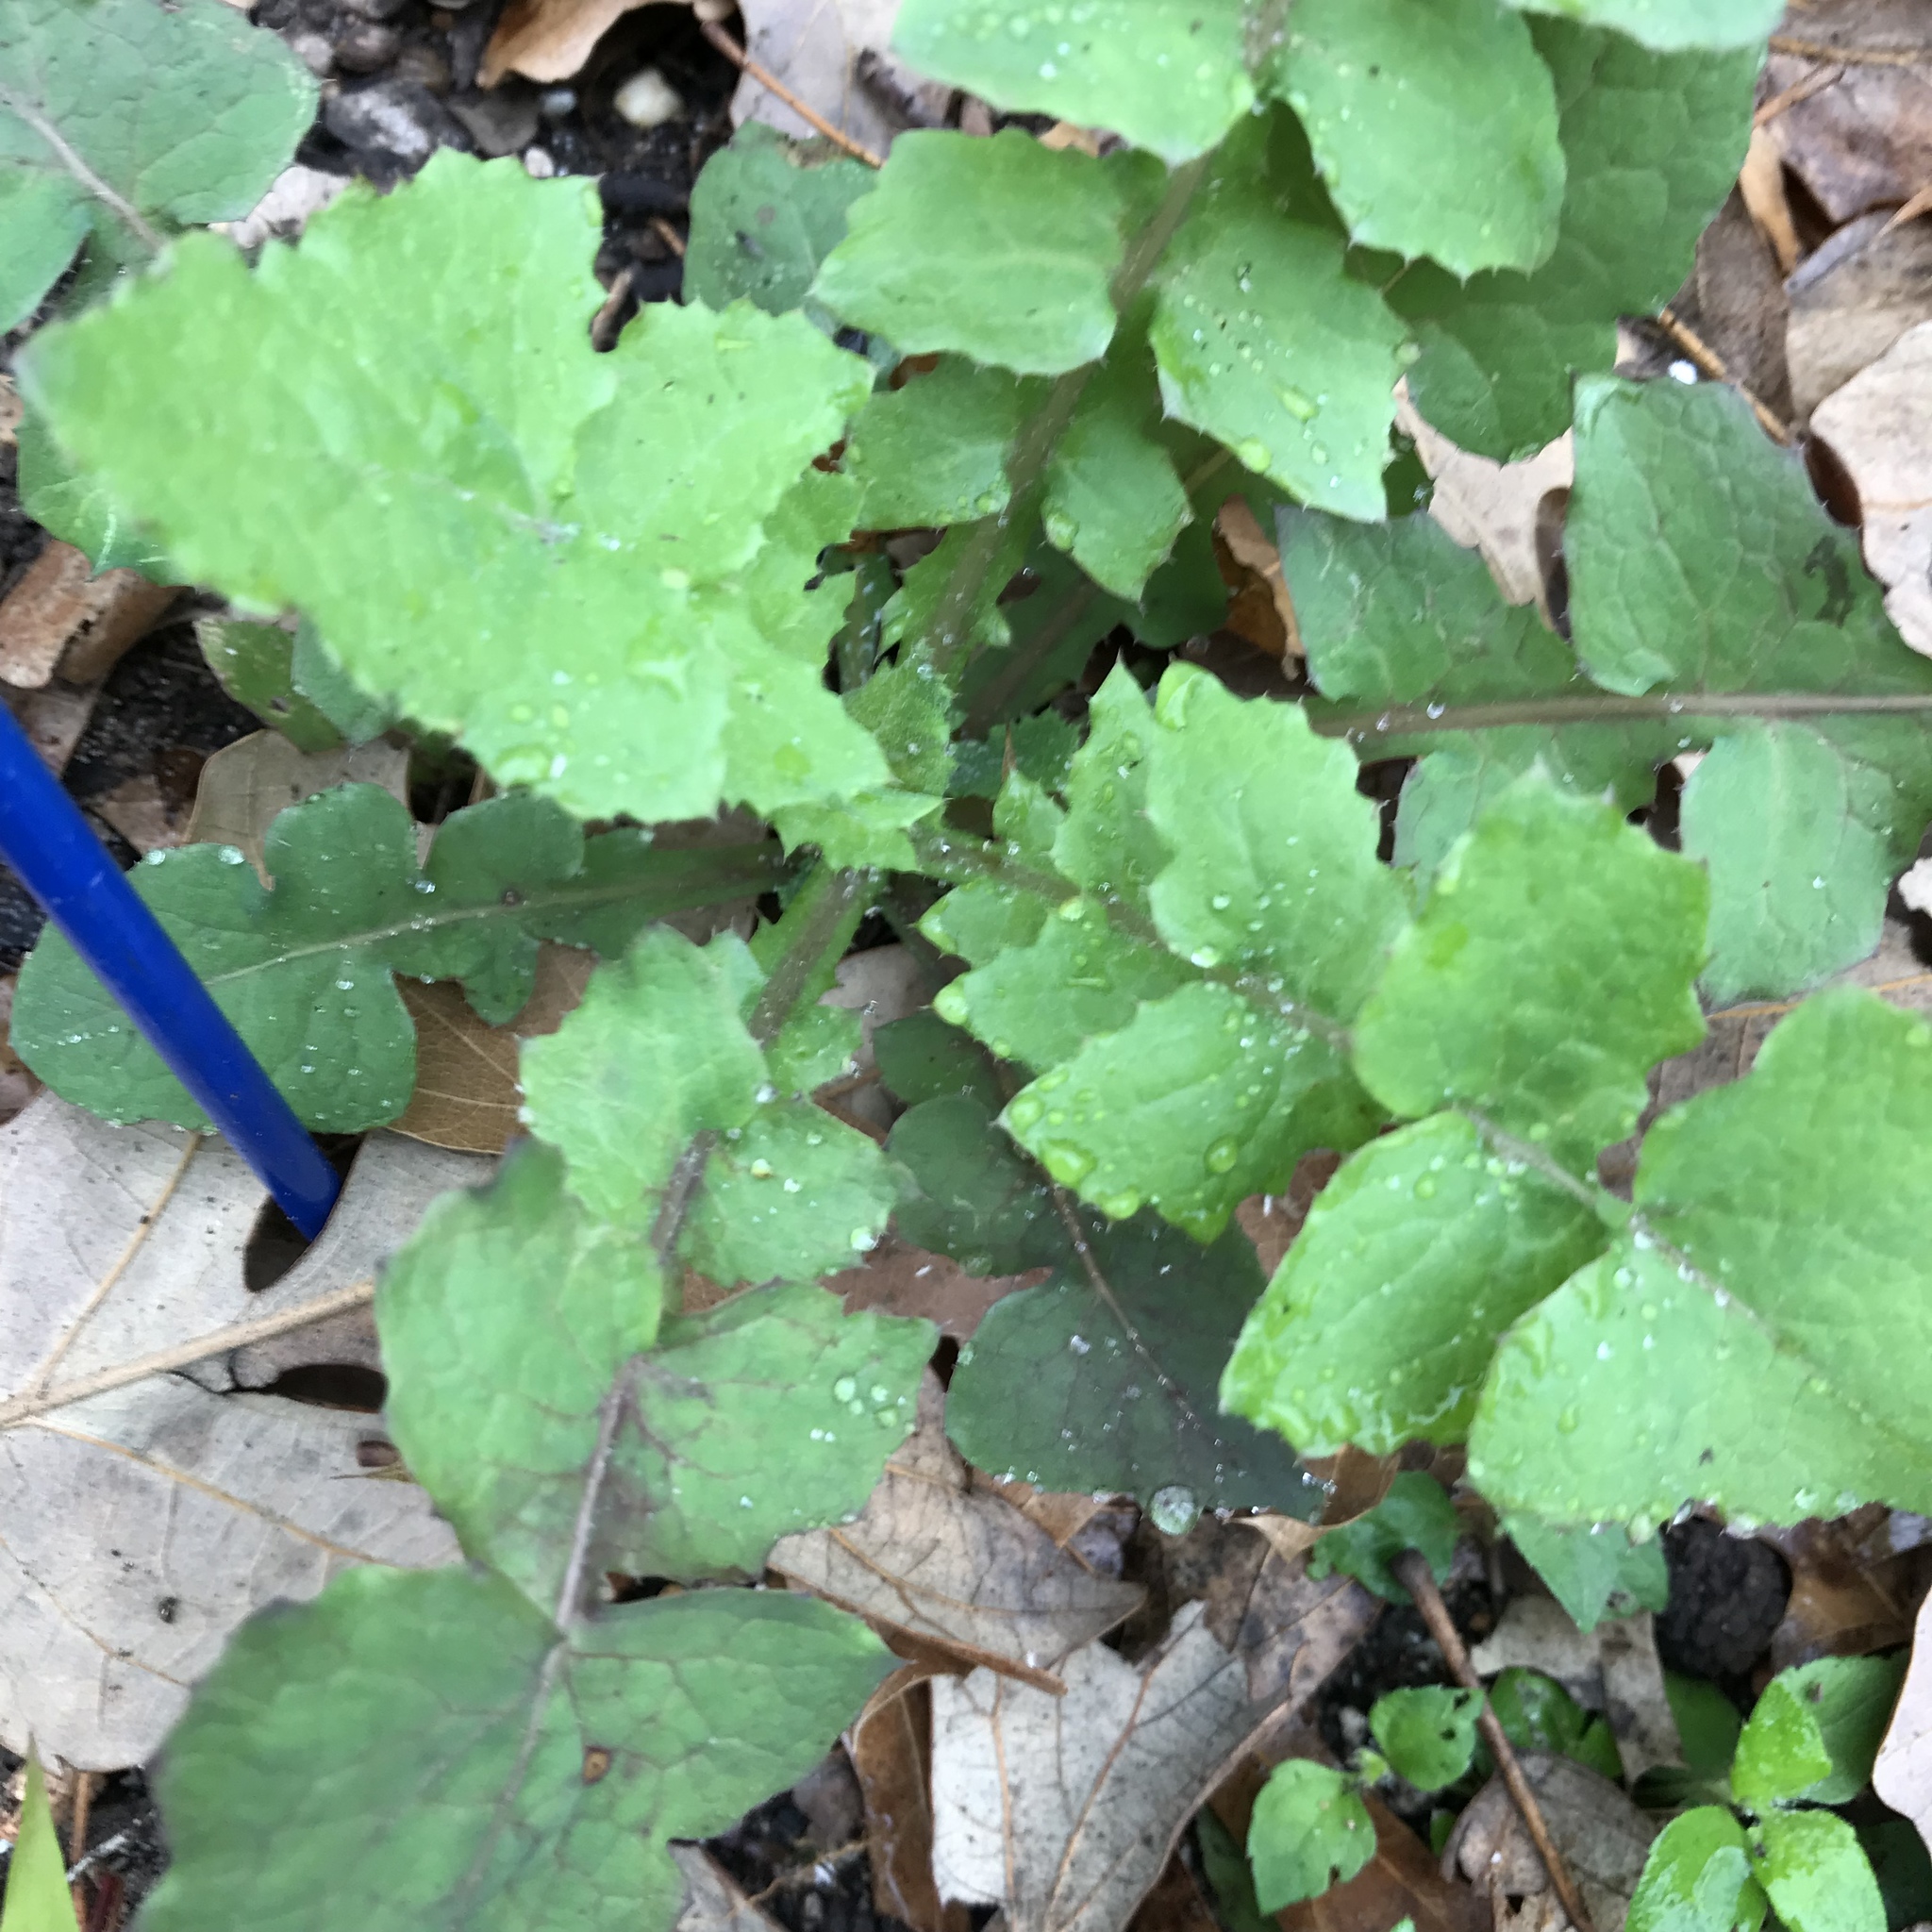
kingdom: Plantae
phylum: Tracheophyta
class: Magnoliopsida
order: Asterales
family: Asteraceae
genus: Sonchus
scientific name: Sonchus oleraceus
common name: Common sowthistle
